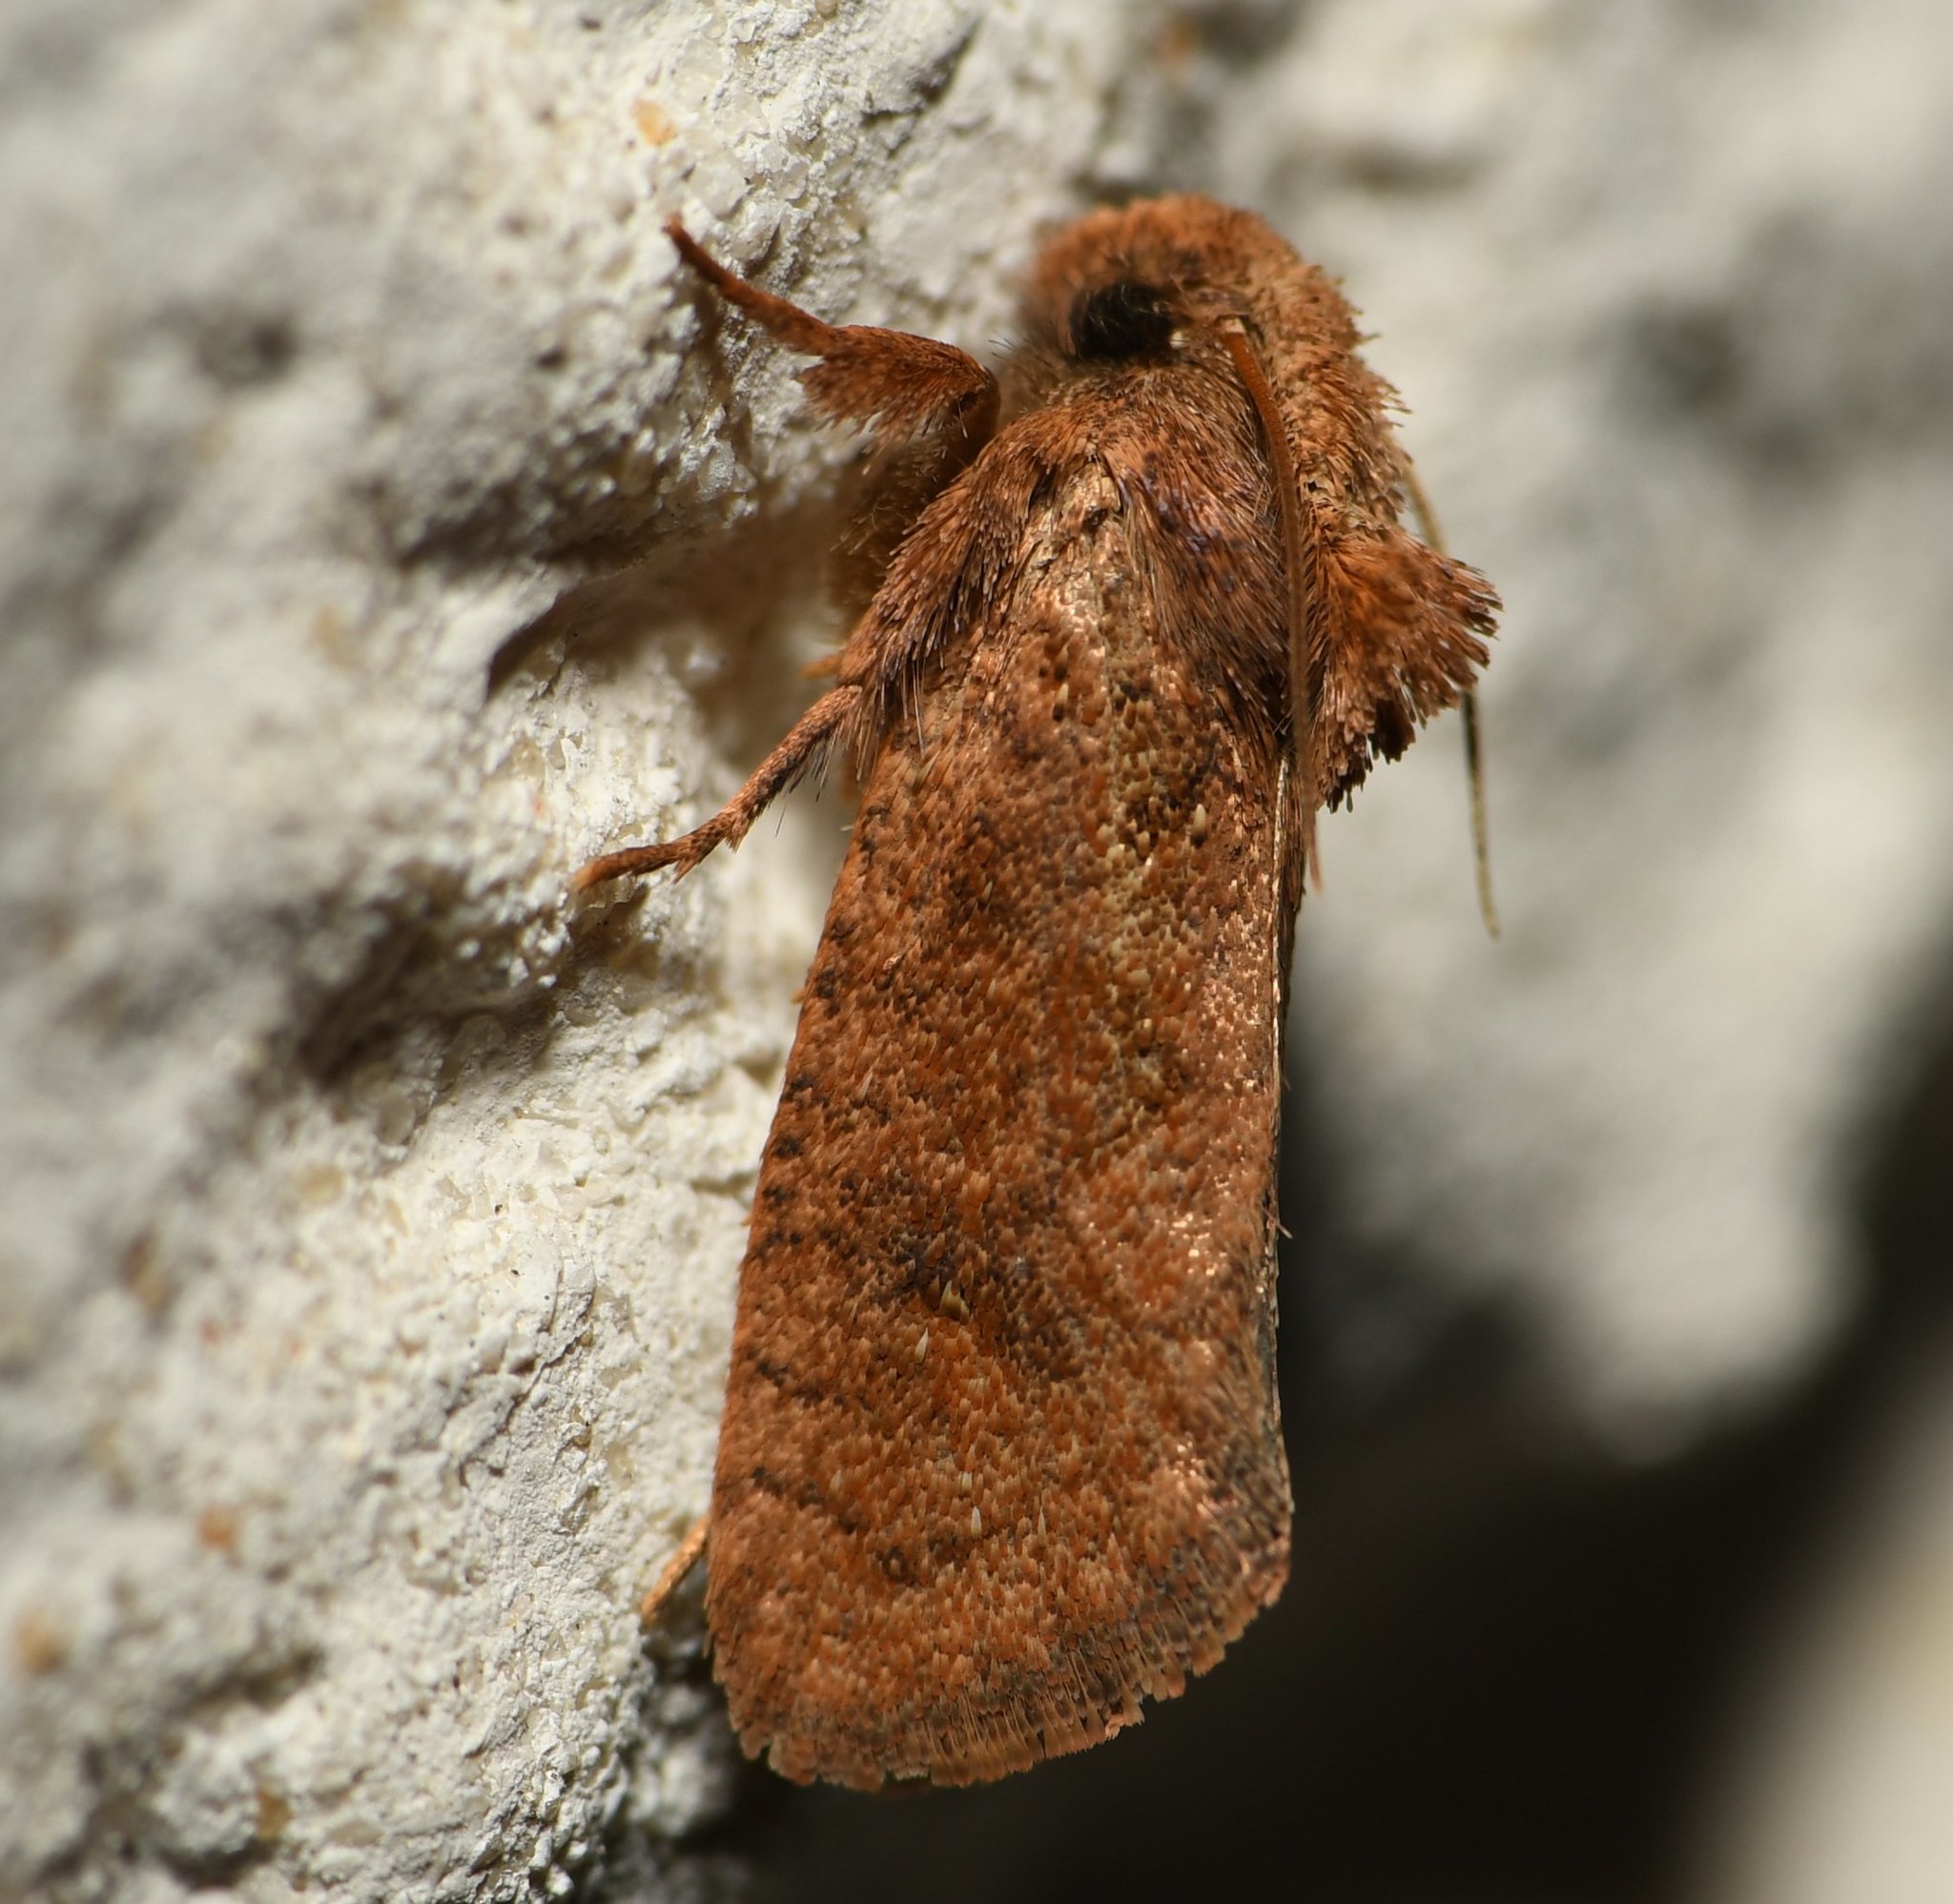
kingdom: Animalia
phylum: Arthropoda
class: Insecta
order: Lepidoptera
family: Tineidae
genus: Acrolophus
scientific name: Acrolophus walsinghami
